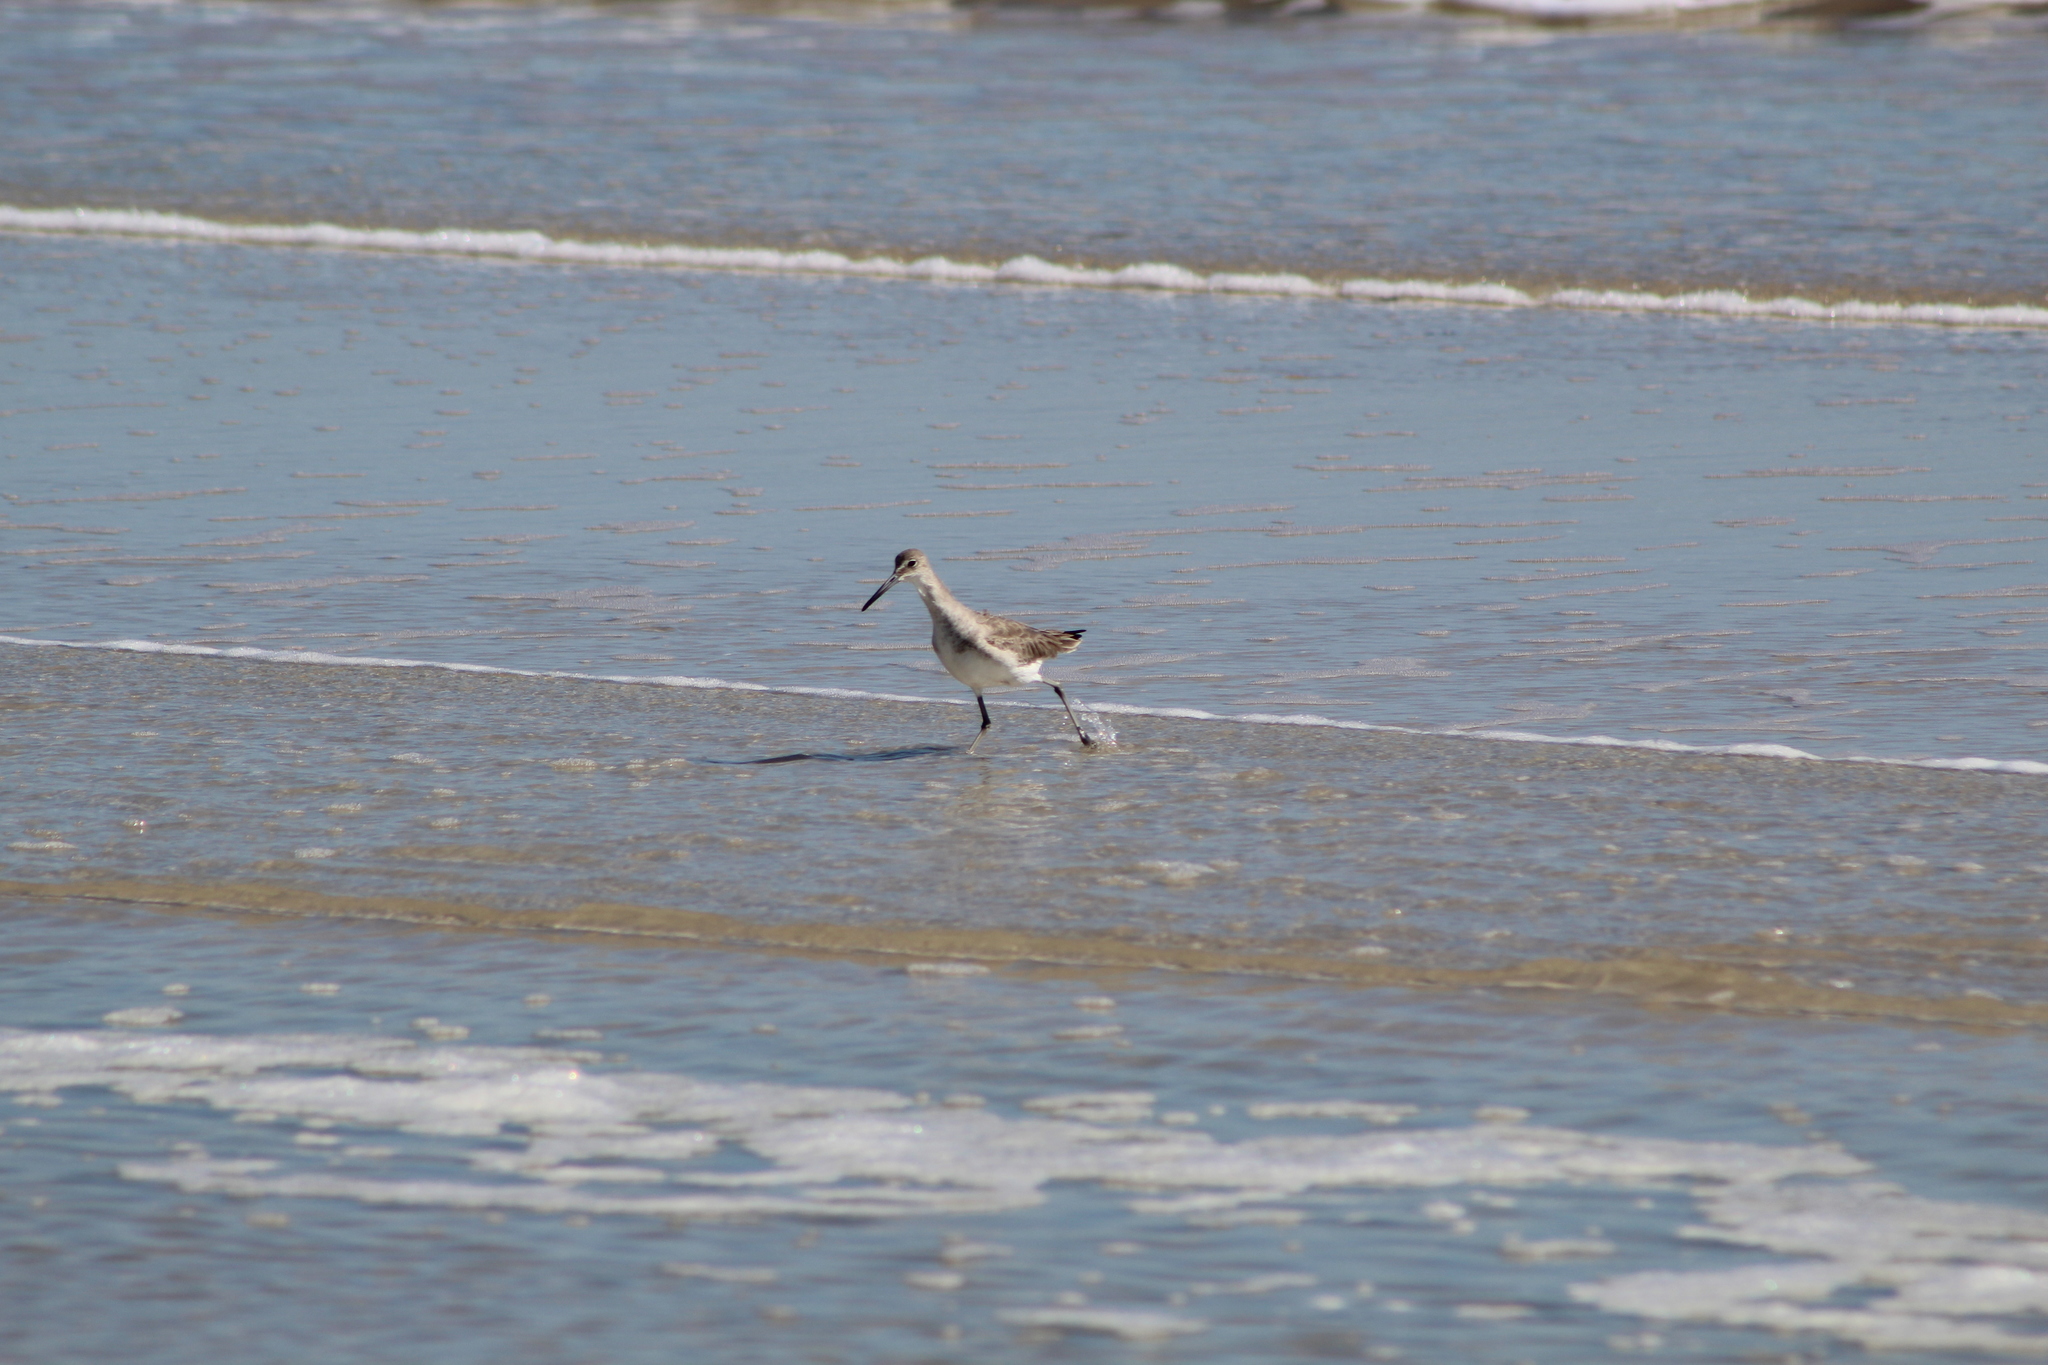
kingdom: Animalia
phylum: Chordata
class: Aves
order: Charadriiformes
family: Scolopacidae
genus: Tringa
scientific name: Tringa semipalmata
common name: Willet
